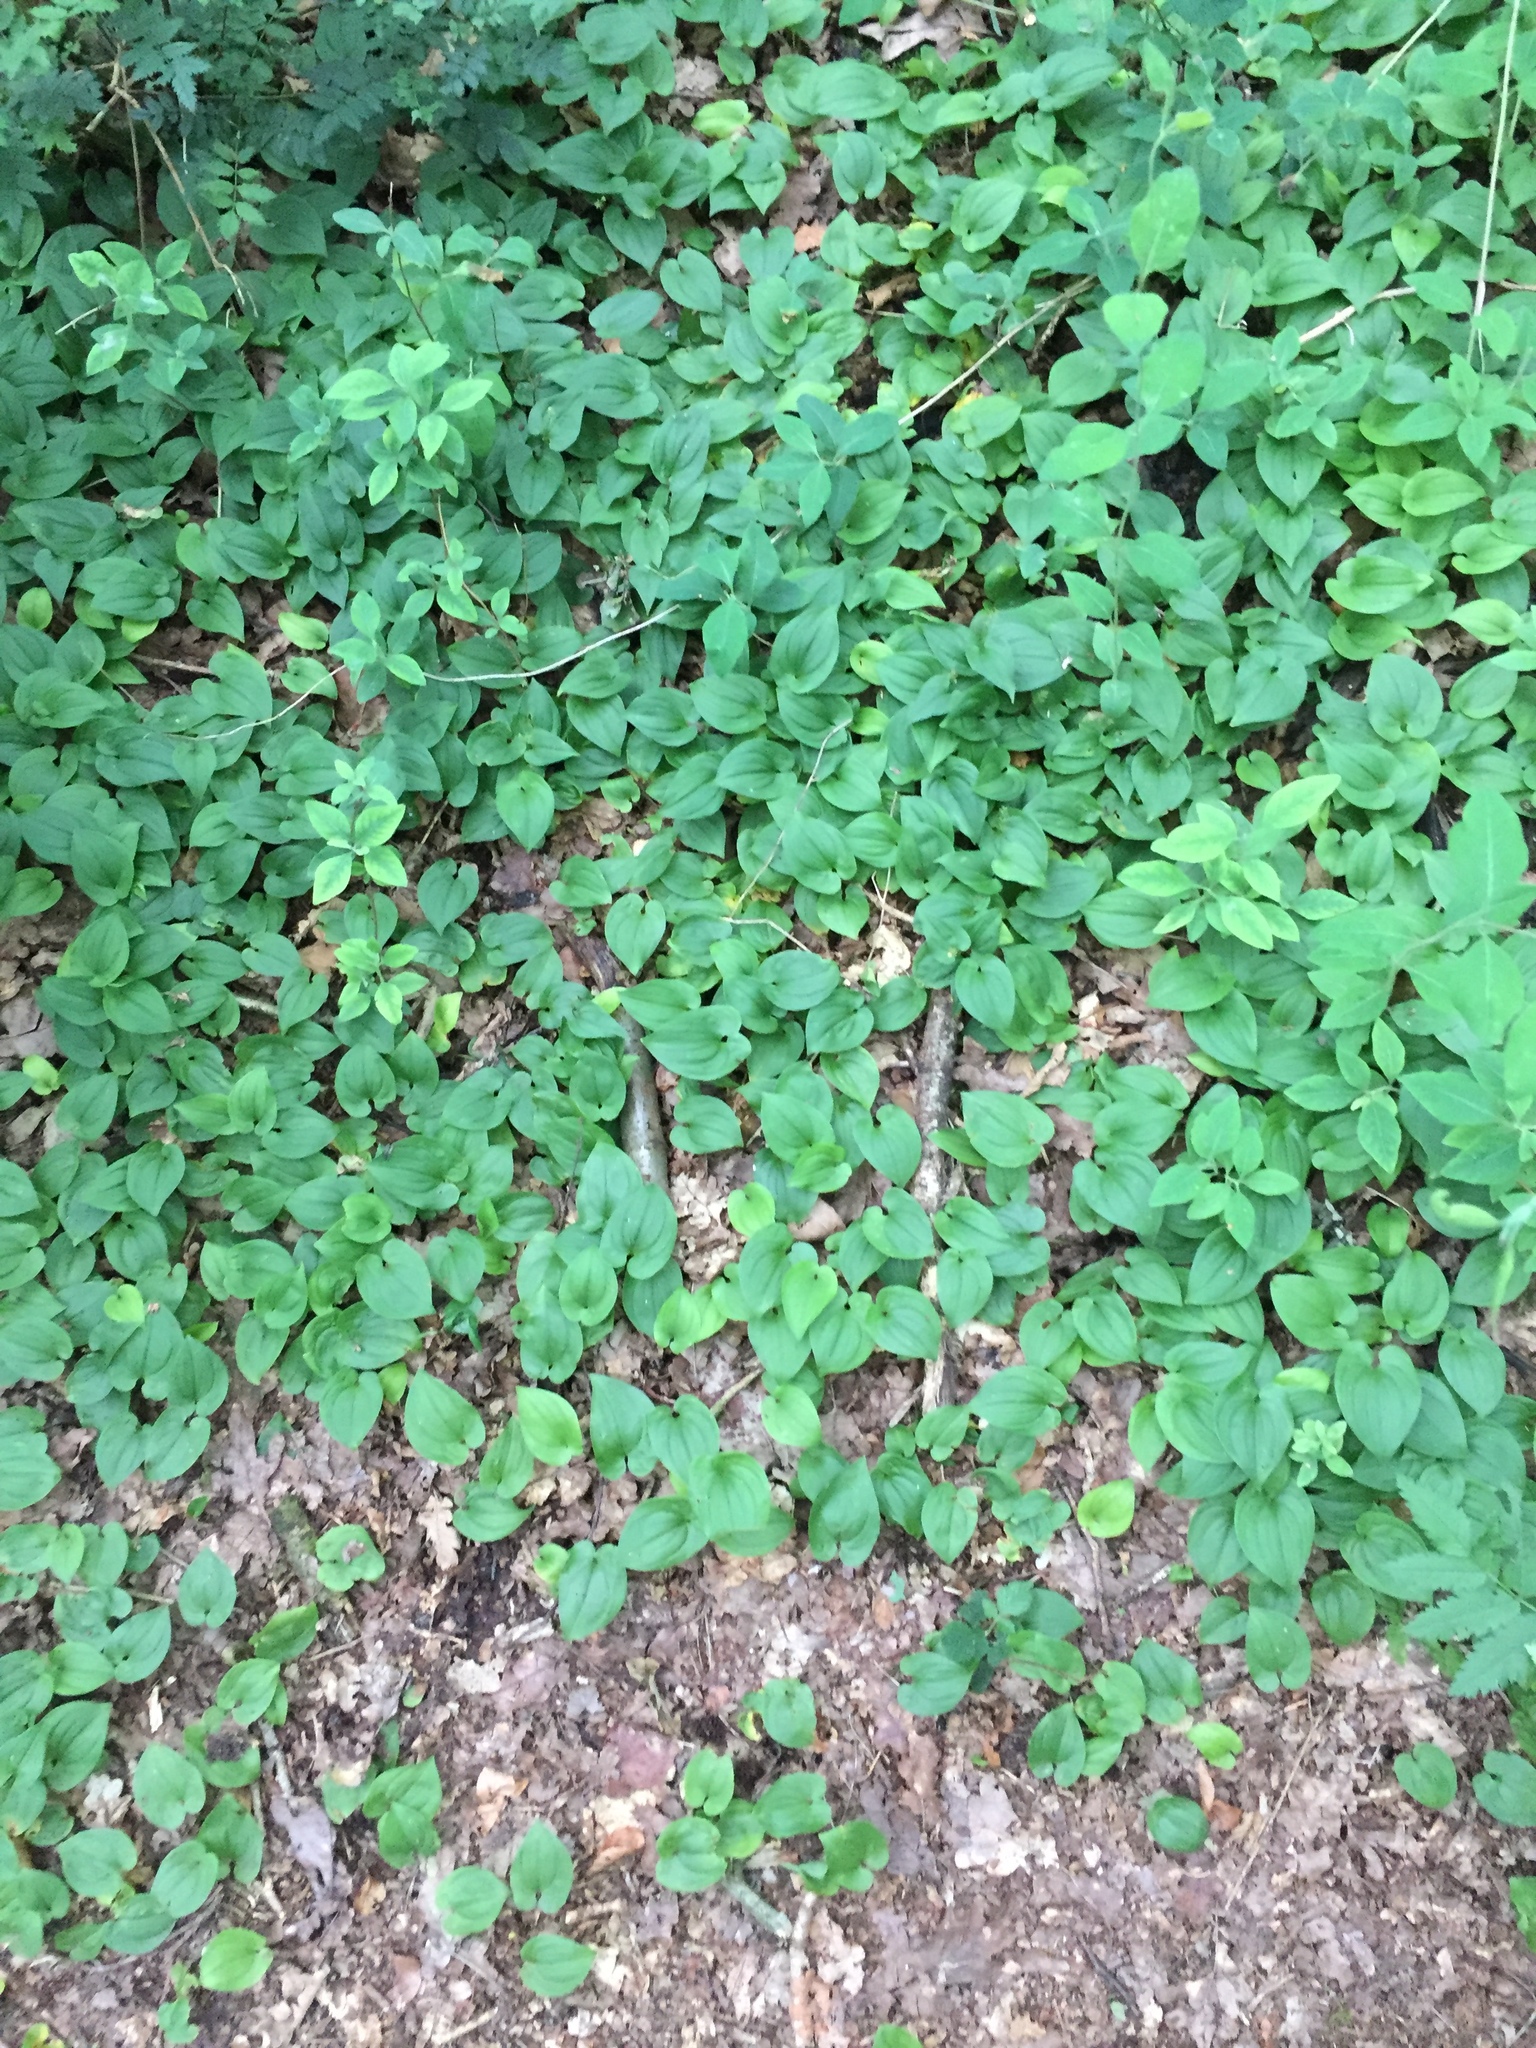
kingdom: Plantae
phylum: Tracheophyta
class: Liliopsida
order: Asparagales
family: Asparagaceae
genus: Maianthemum
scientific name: Maianthemum bifolium
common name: May lily
